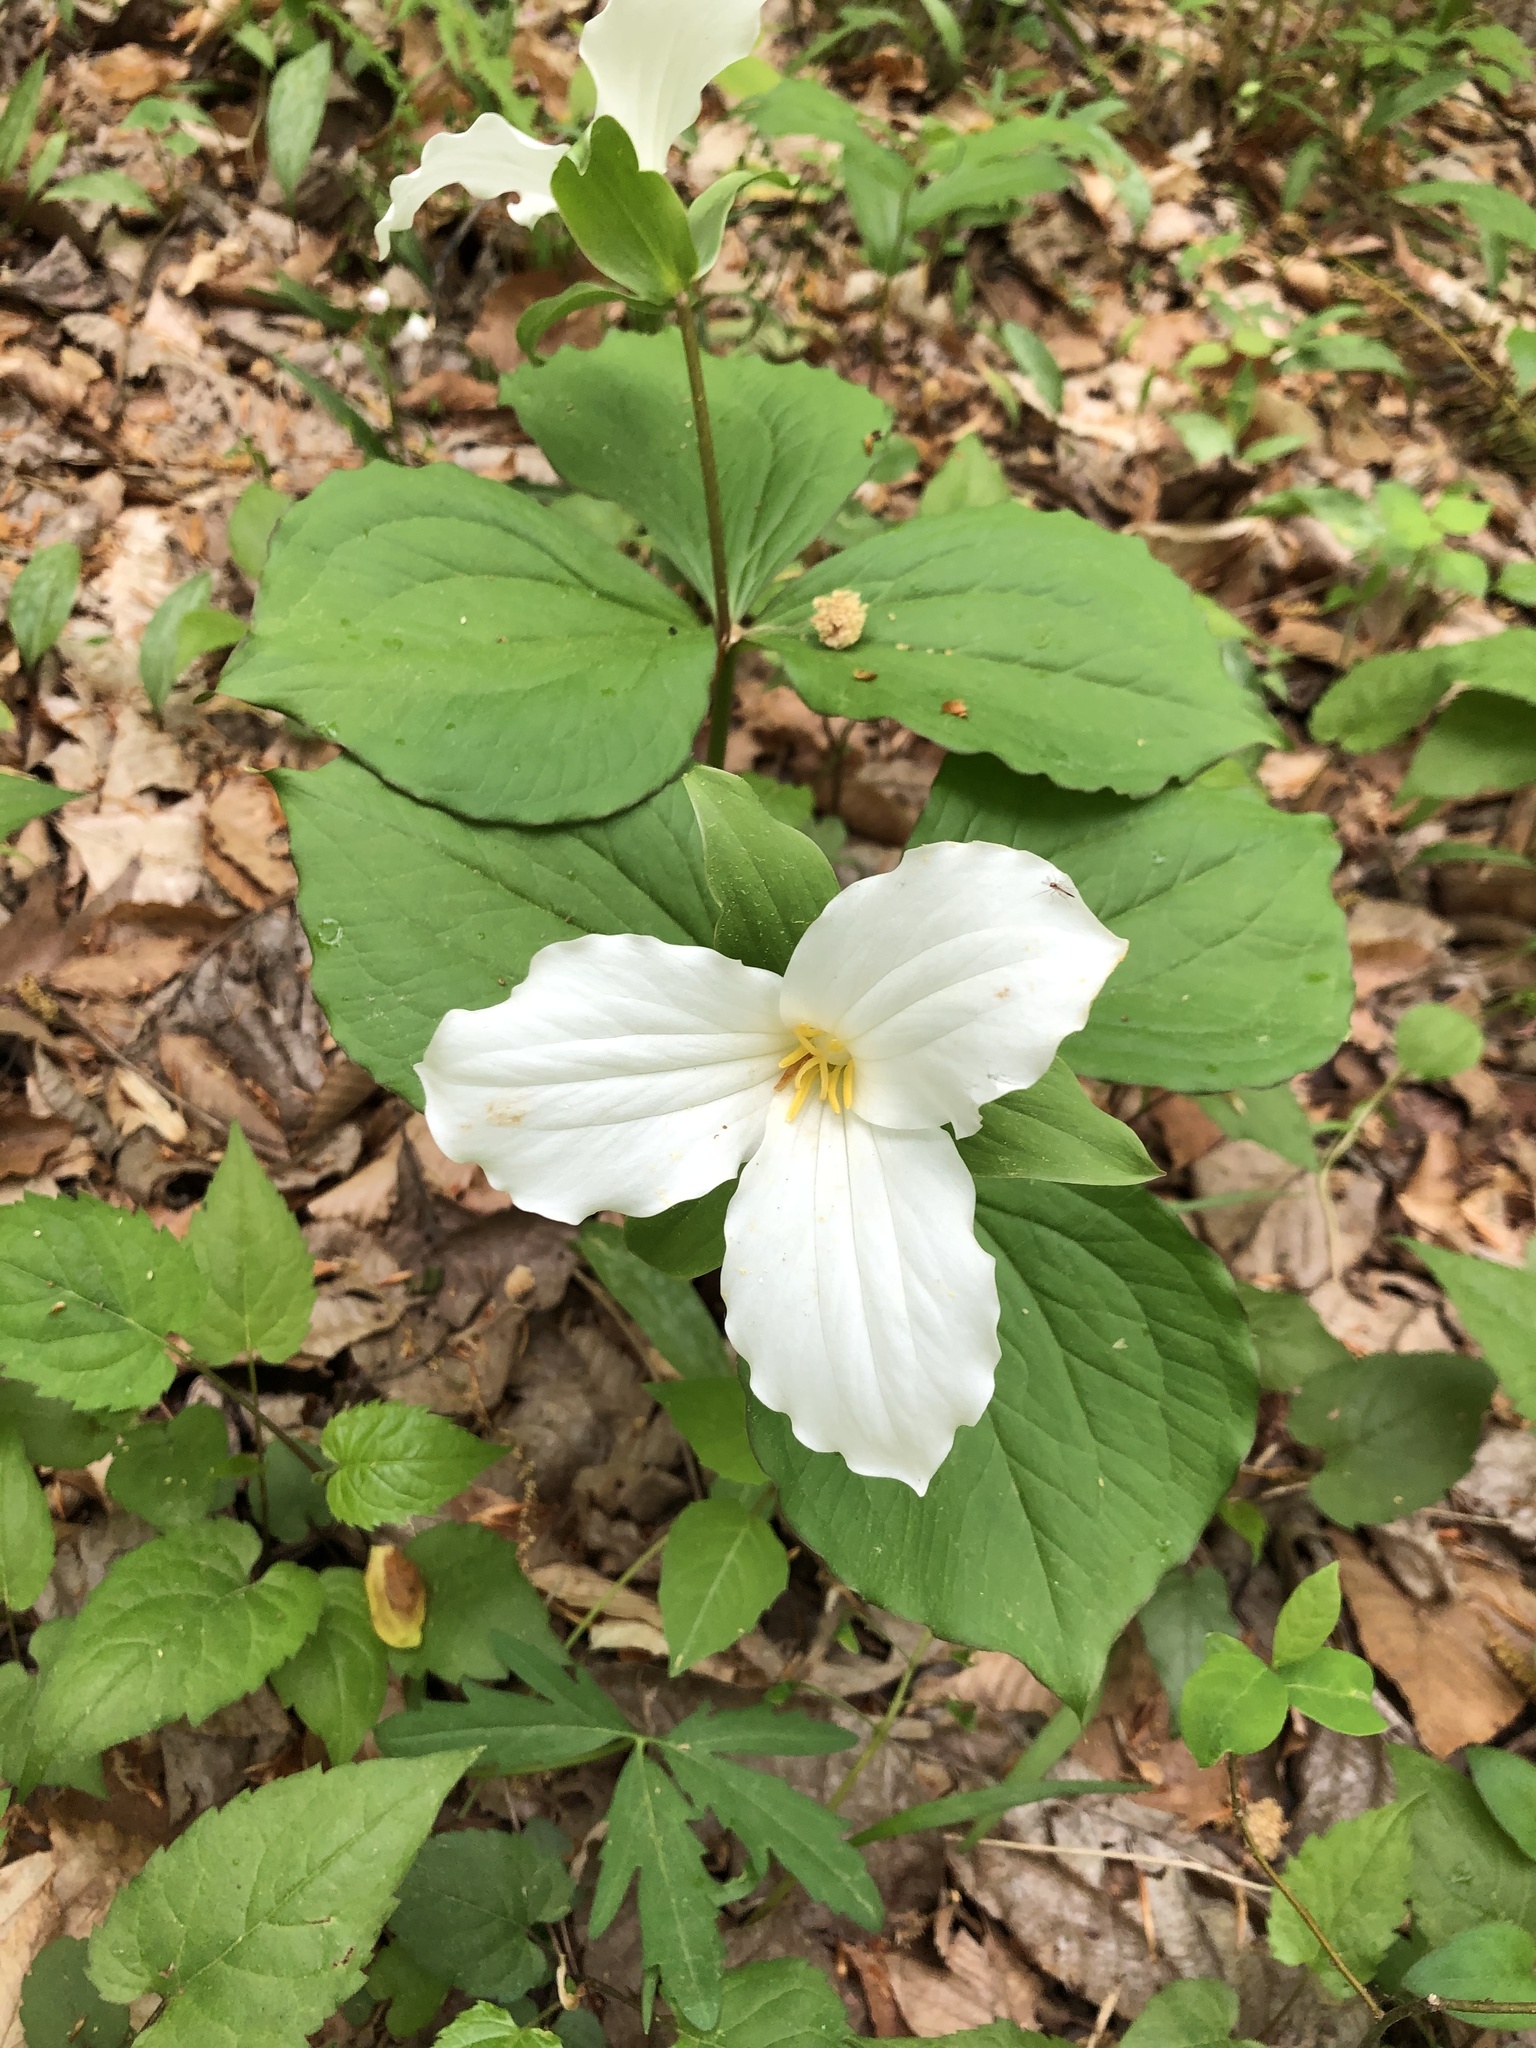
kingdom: Plantae
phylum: Tracheophyta
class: Liliopsida
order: Liliales
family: Melanthiaceae
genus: Trillium
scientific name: Trillium grandiflorum
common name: Great white trillium
